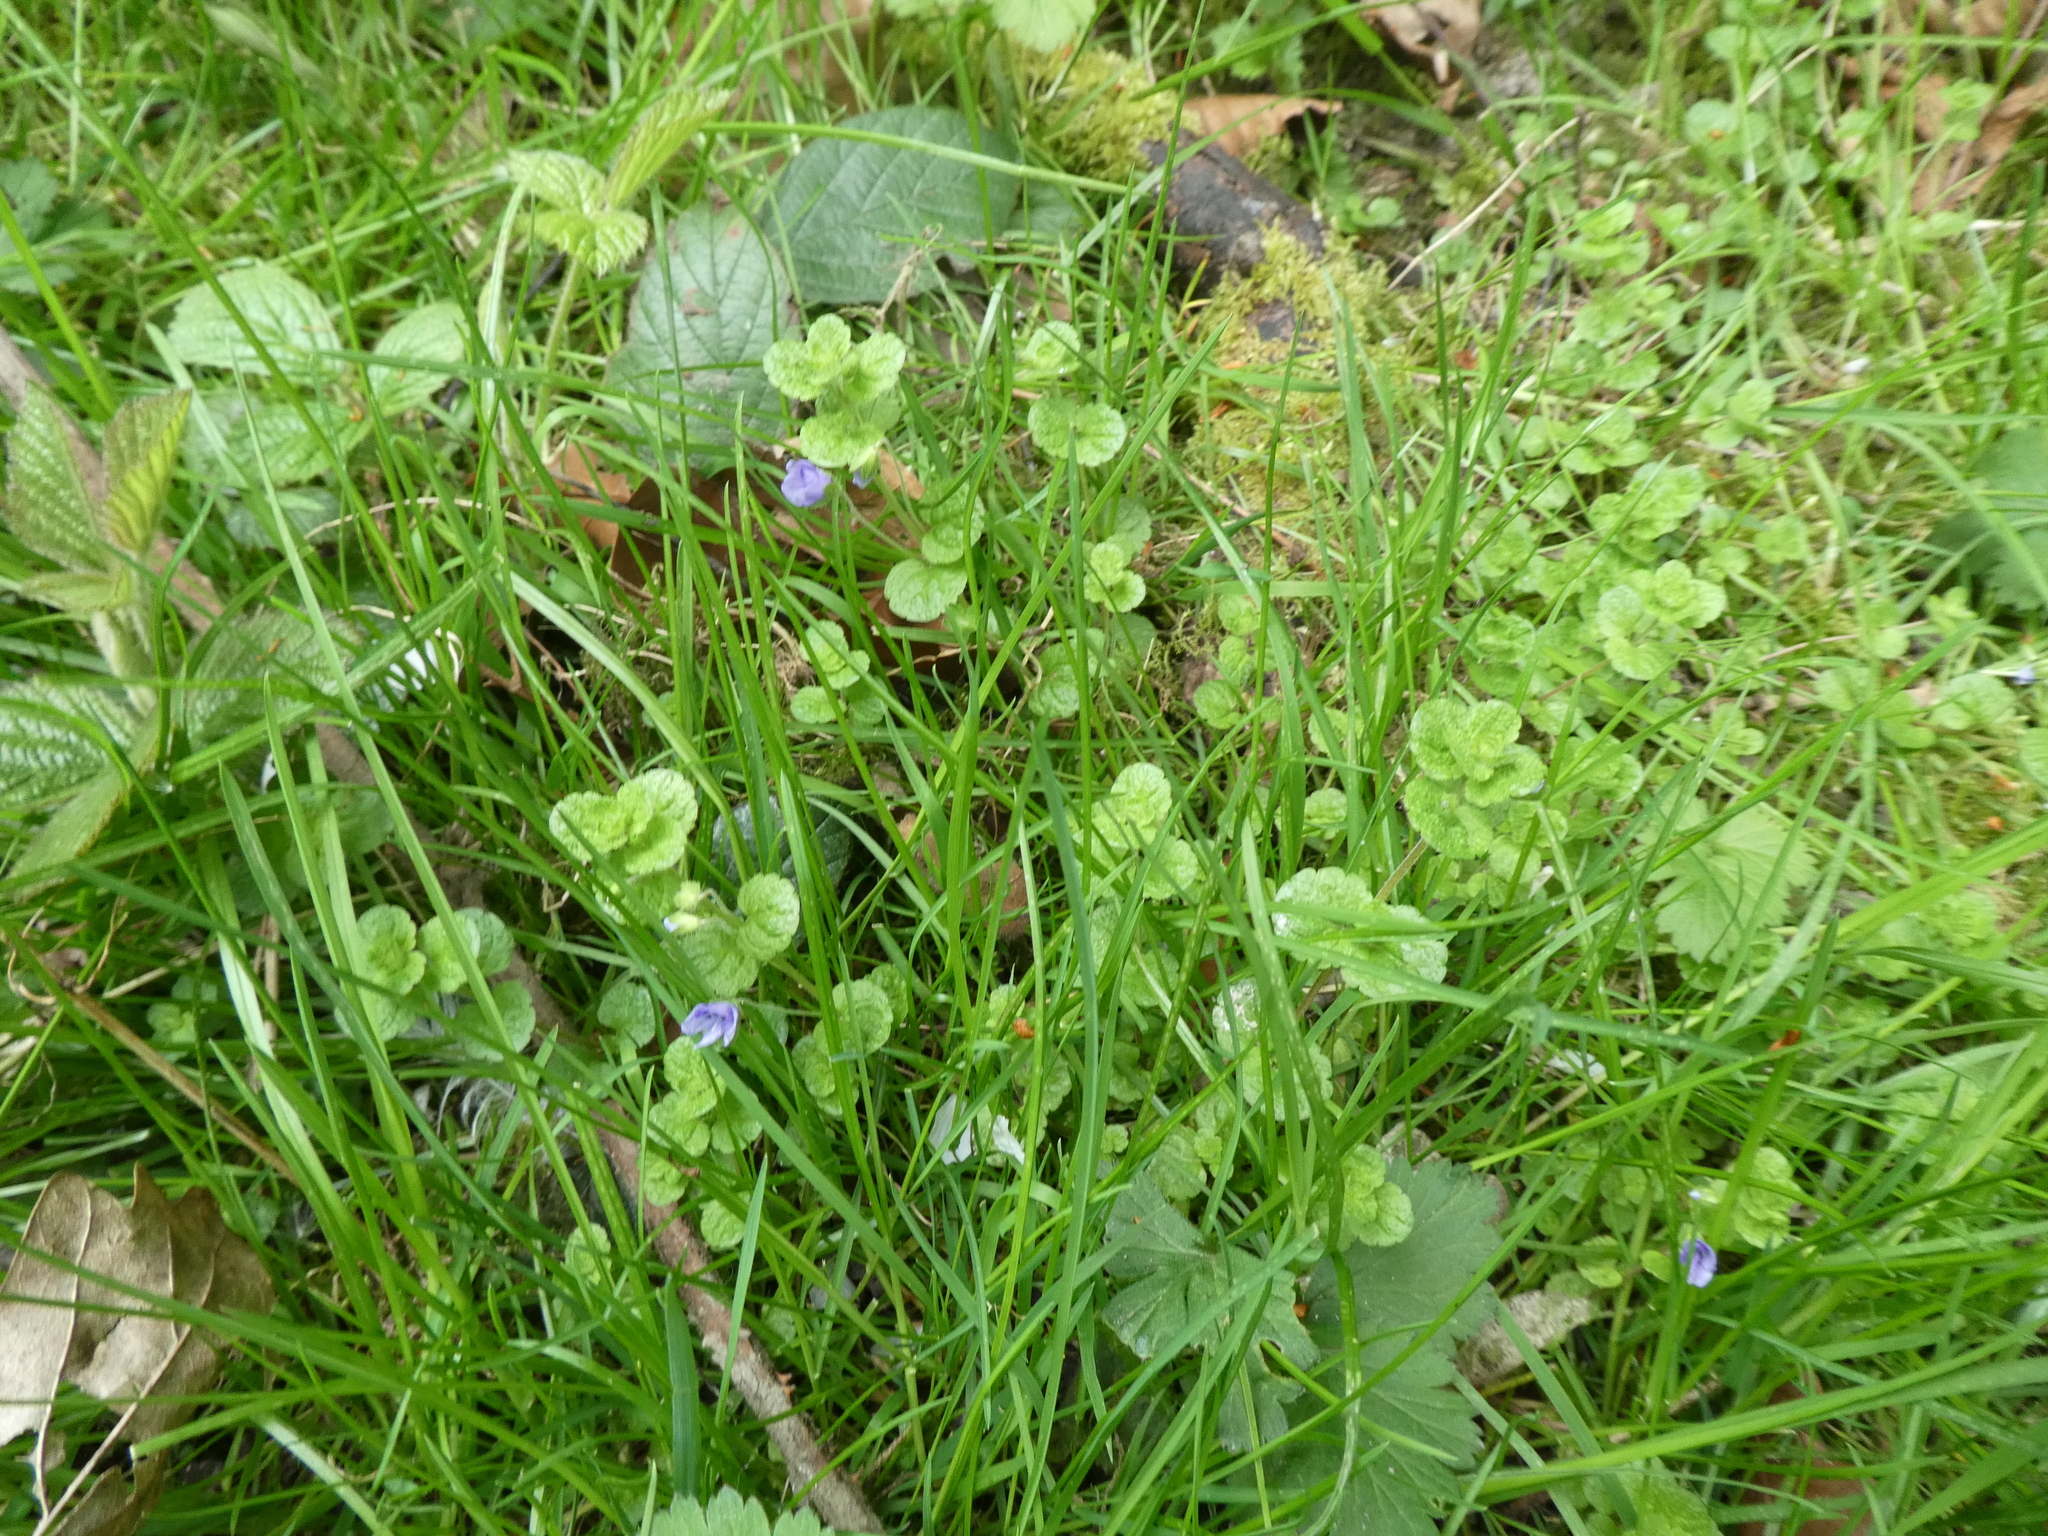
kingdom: Plantae
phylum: Tracheophyta
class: Magnoliopsida
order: Lamiales
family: Plantaginaceae
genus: Veronica
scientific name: Veronica filiformis
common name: Slender speedwell
